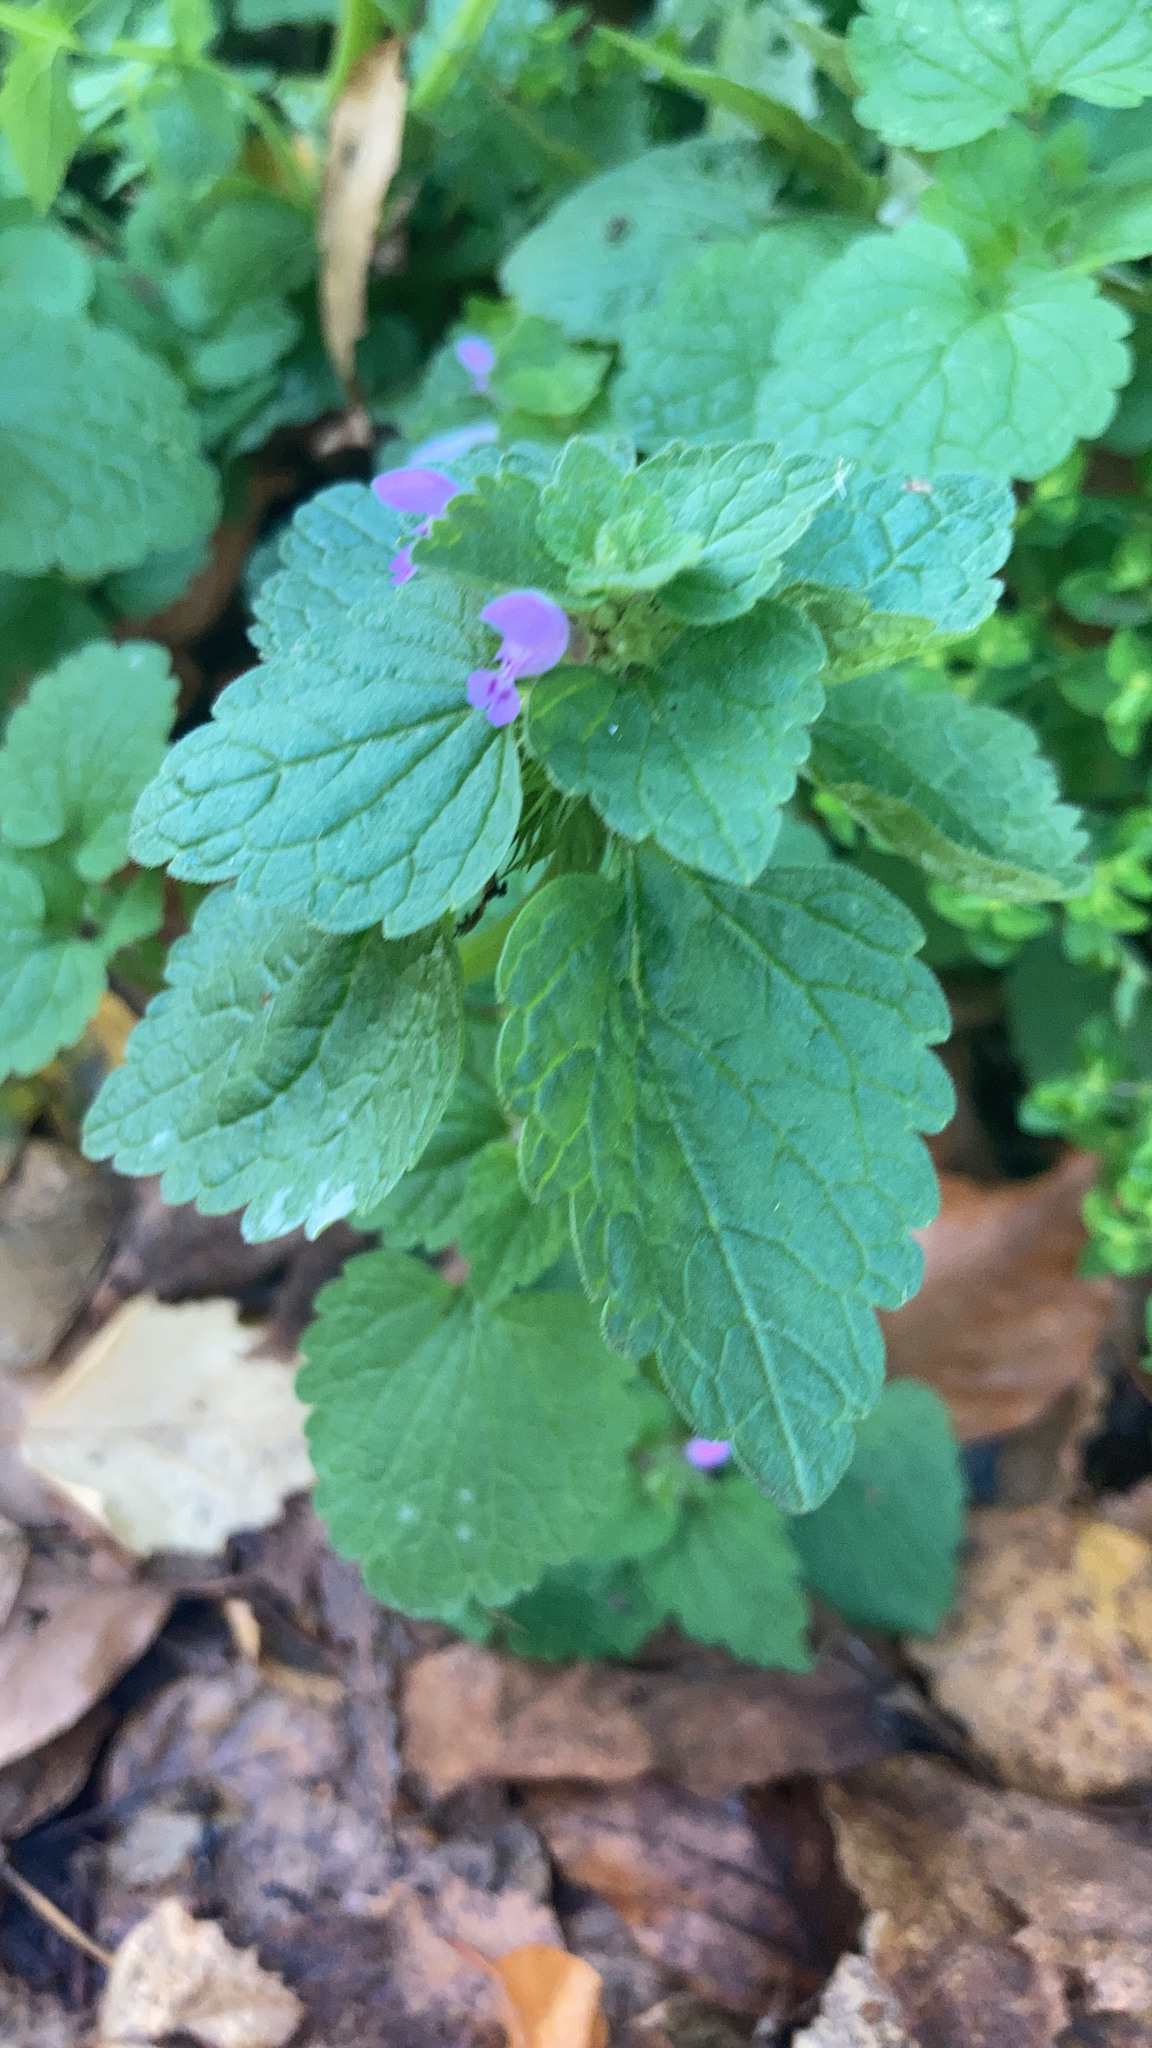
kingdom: Plantae
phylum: Tracheophyta
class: Magnoliopsida
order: Lamiales
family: Lamiaceae
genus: Lamium
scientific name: Lamium purpureum
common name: Red dead-nettle
